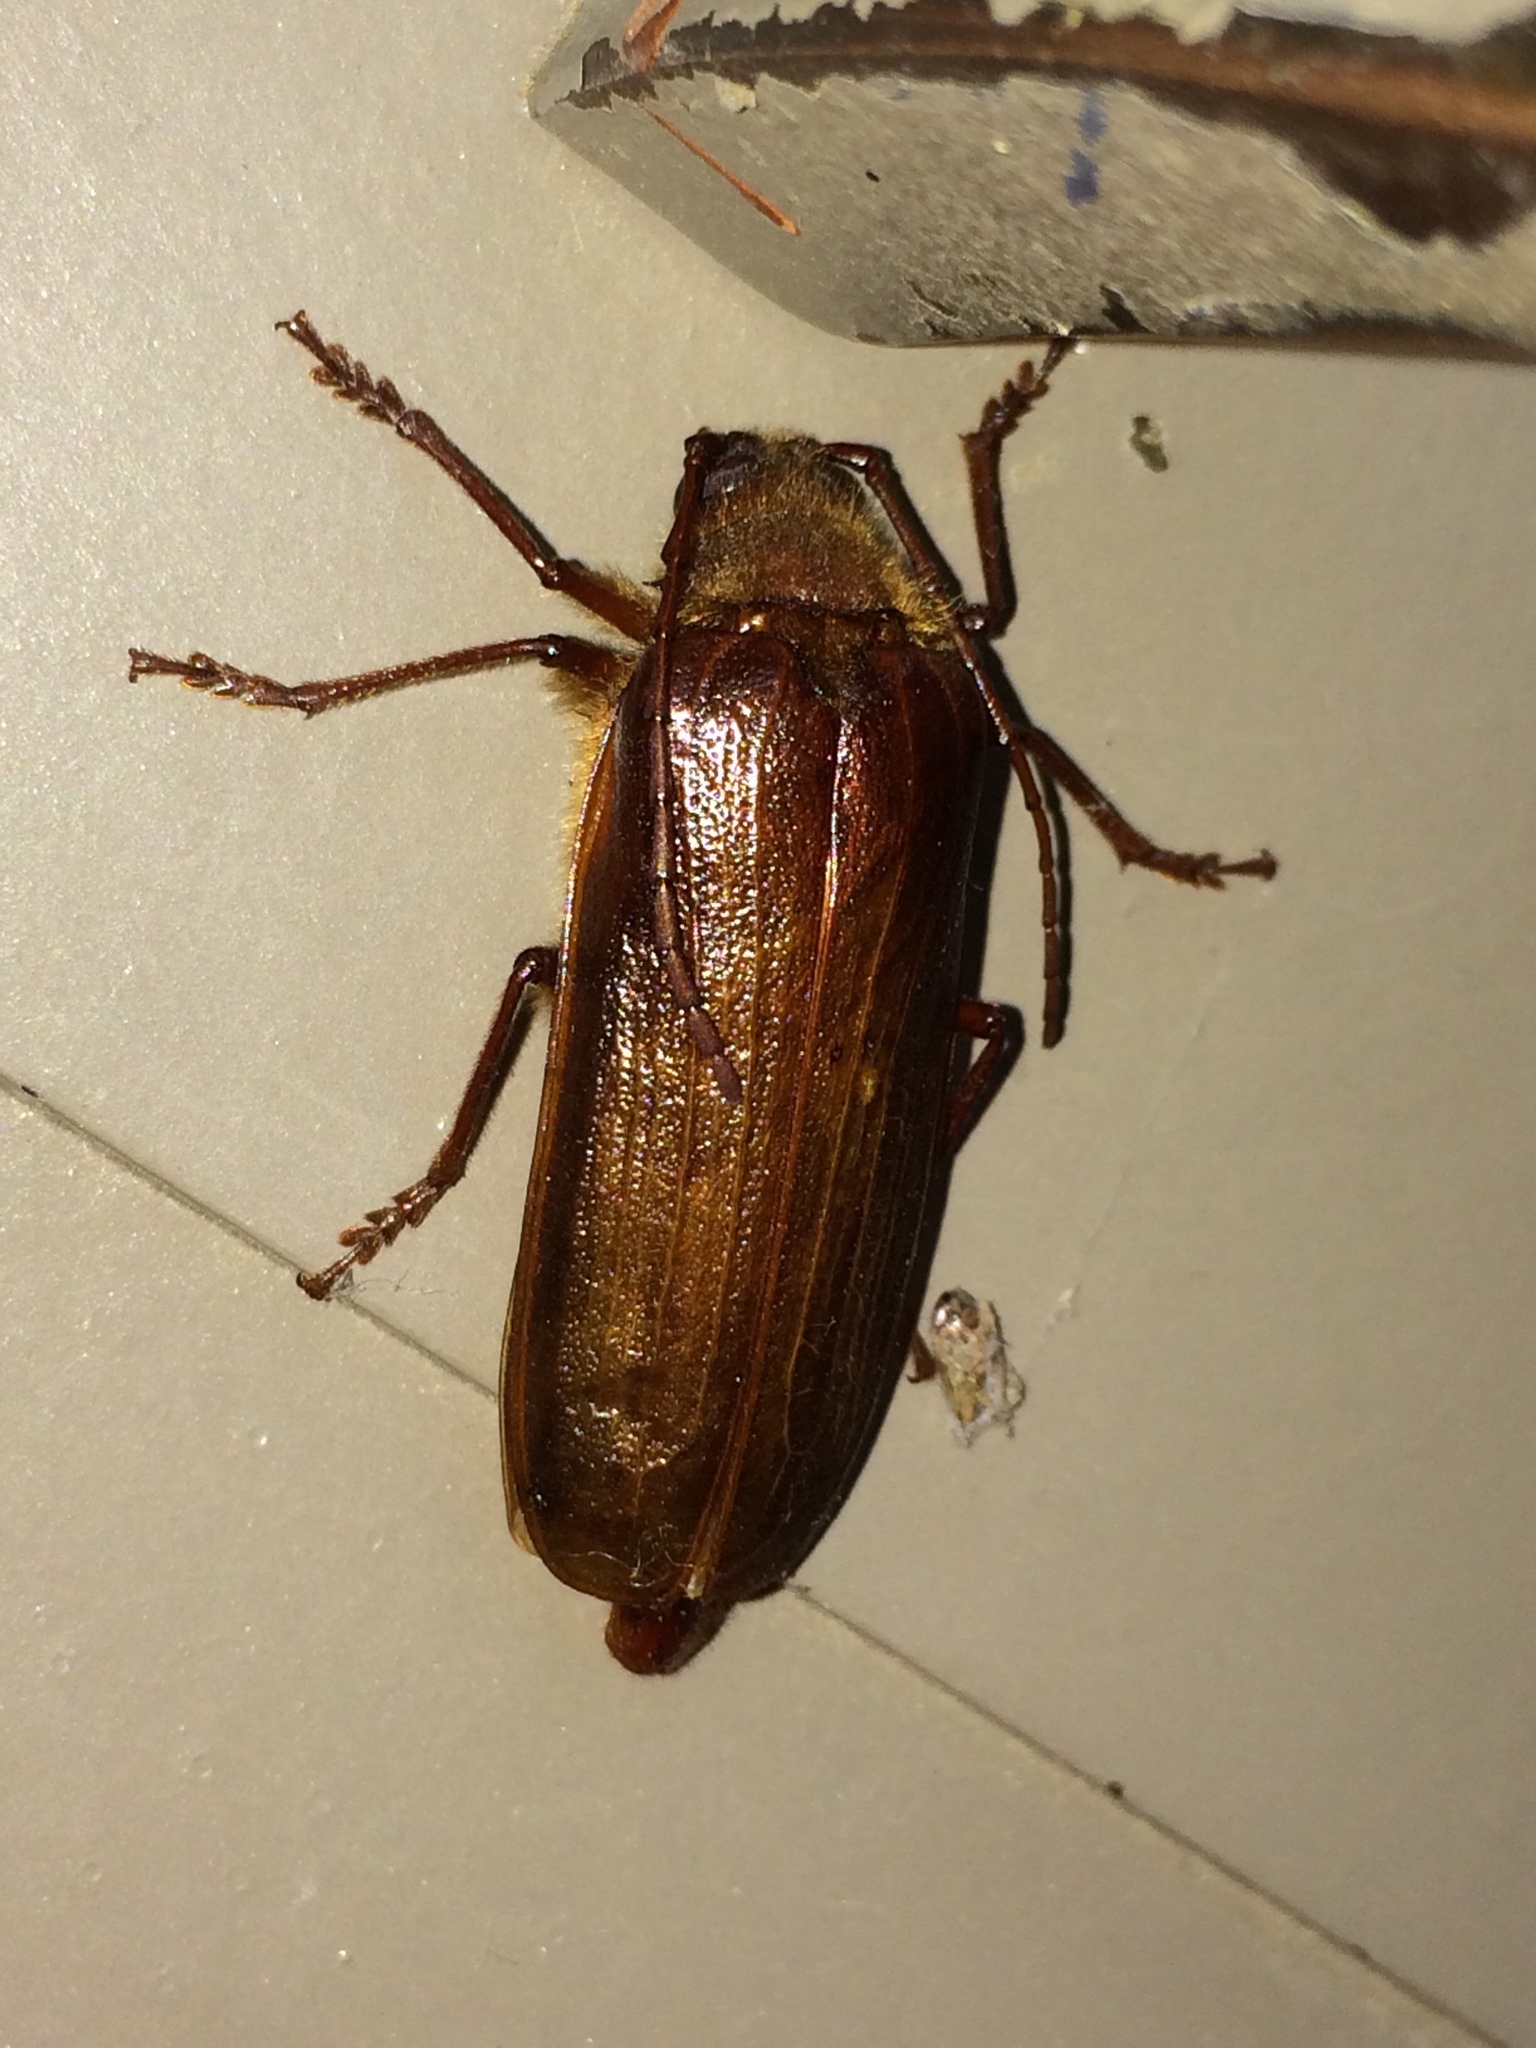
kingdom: Animalia
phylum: Arthropoda
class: Insecta
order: Coleoptera
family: Cerambycidae
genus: Tragosoma
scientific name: Tragosoma harrisii
